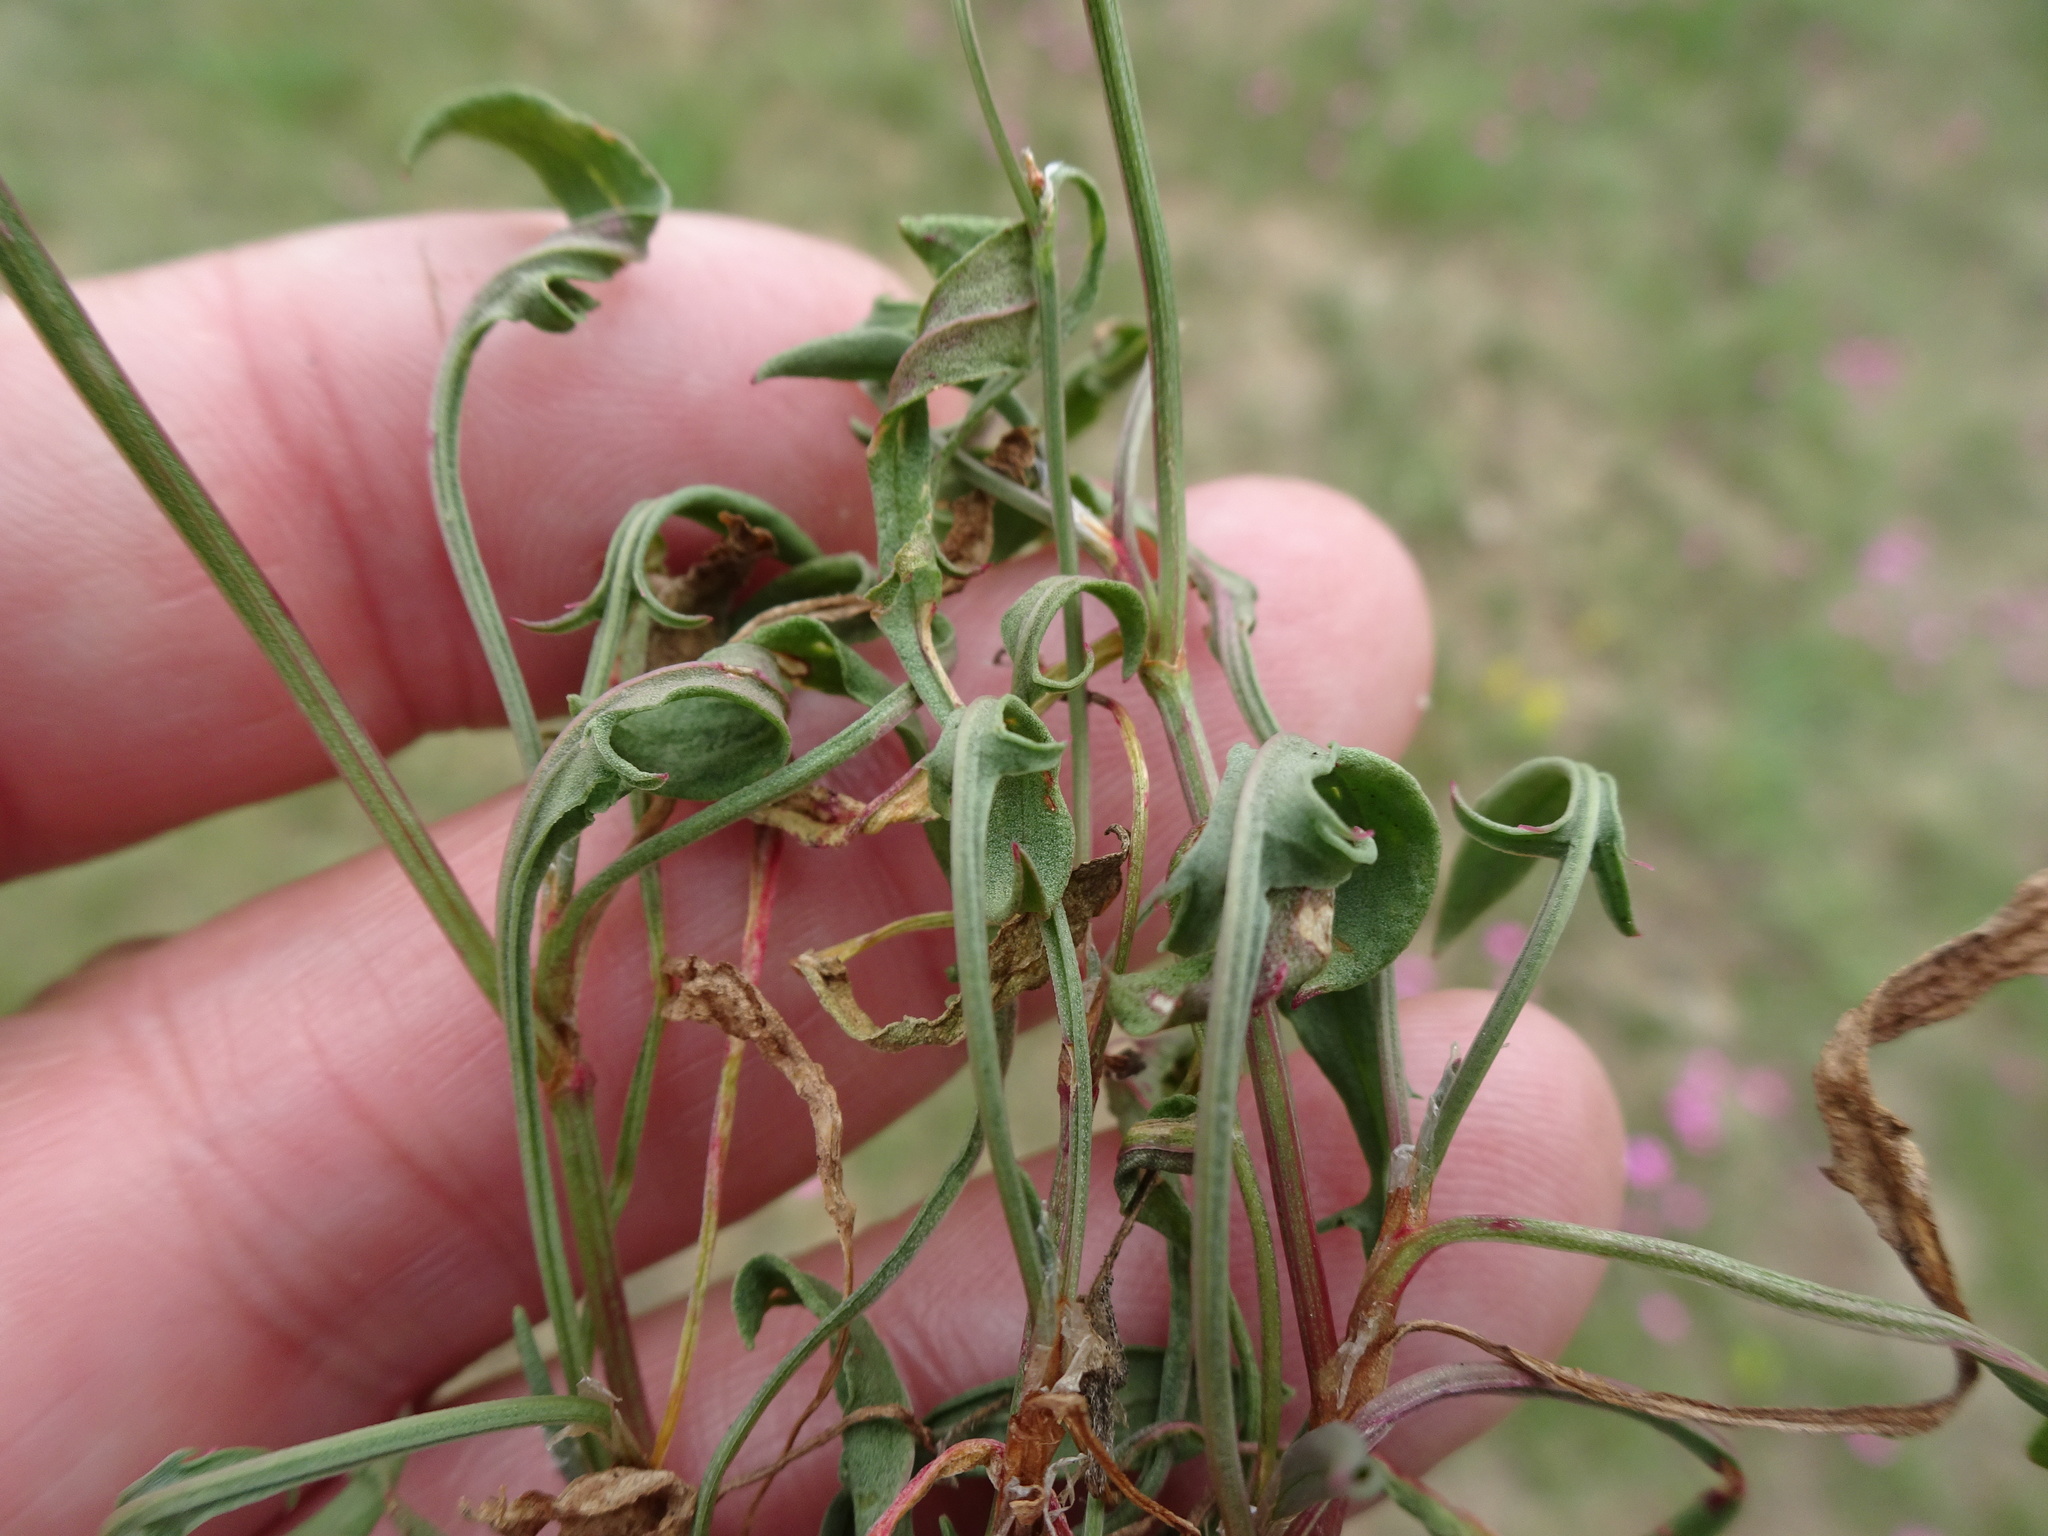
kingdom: Plantae
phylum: Tracheophyta
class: Magnoliopsida
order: Caryophyllales
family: Polygonaceae
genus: Rumex
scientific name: Rumex acetosella
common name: Common sheep sorrel
